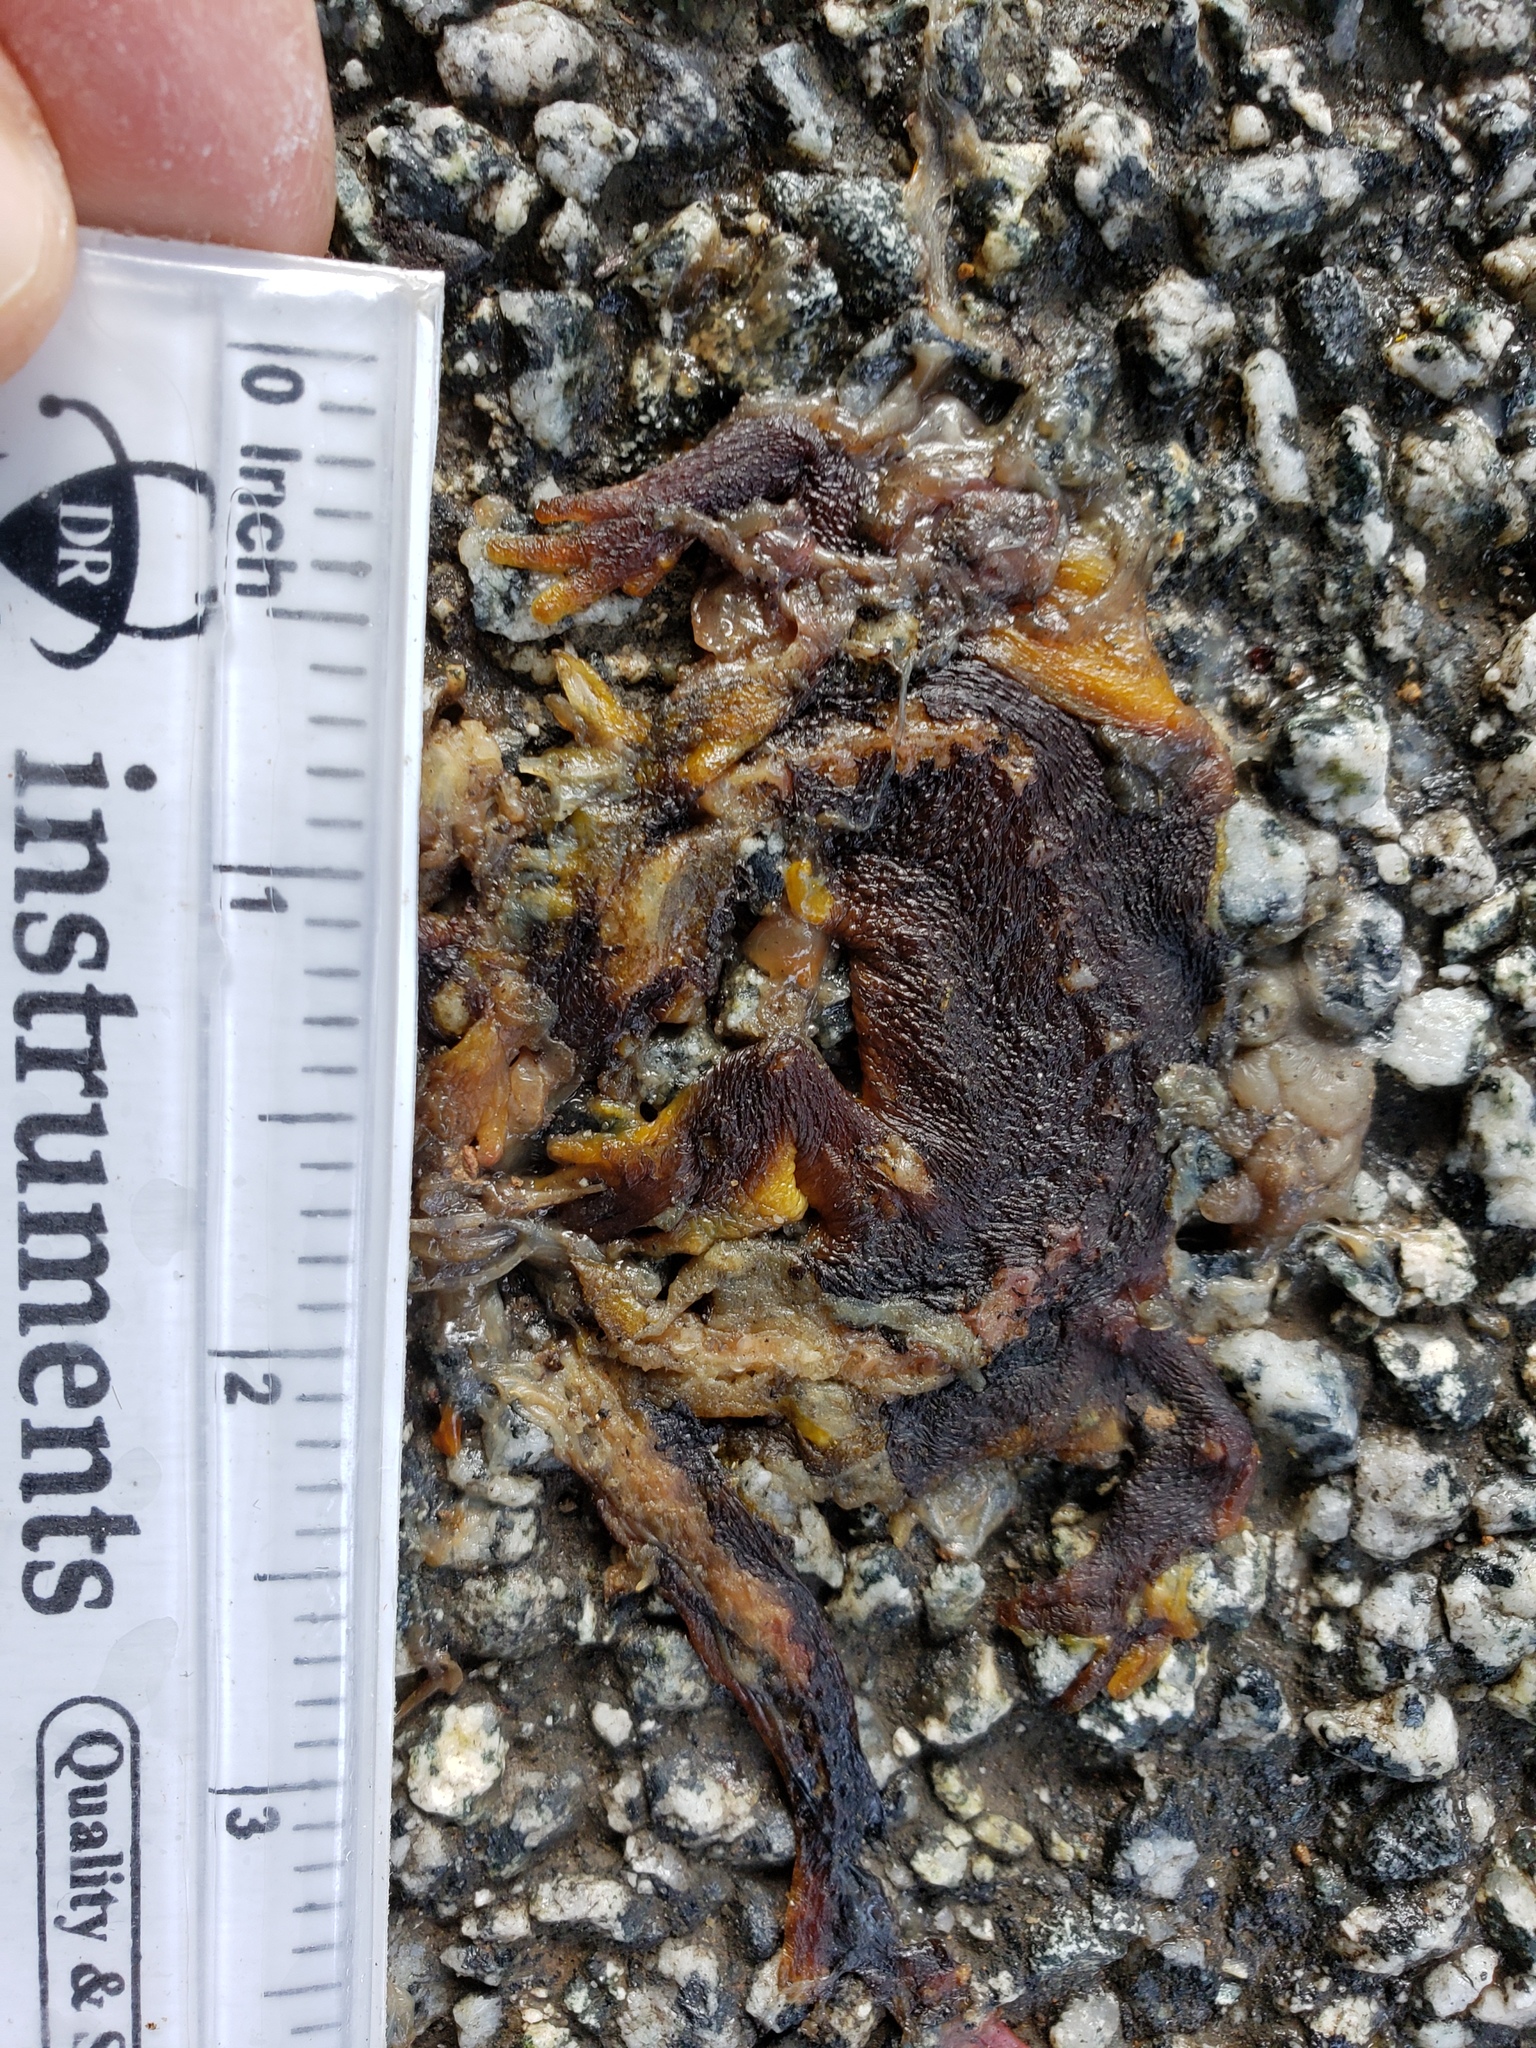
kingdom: Animalia
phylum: Chordata
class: Amphibia
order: Caudata
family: Salamandridae
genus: Taricha
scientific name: Taricha
